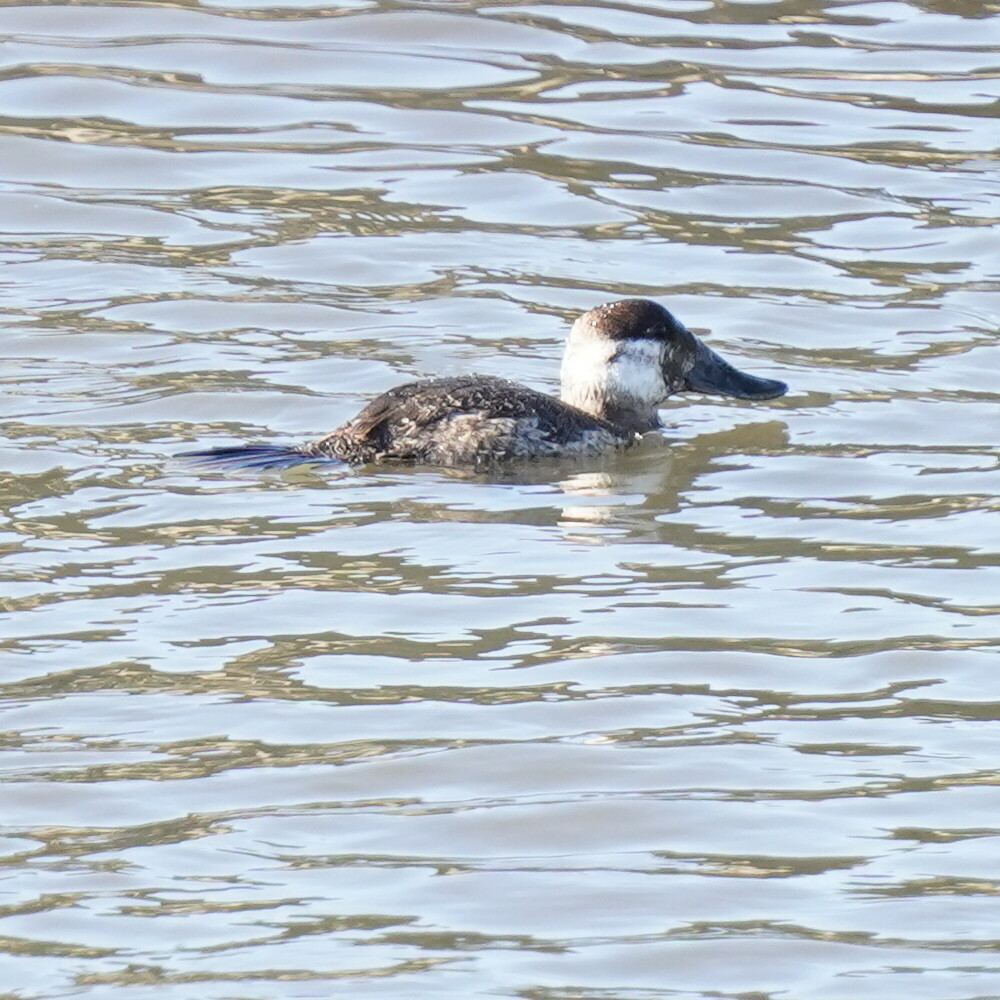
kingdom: Animalia
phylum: Chordata
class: Aves
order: Anseriformes
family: Anatidae
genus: Oxyura
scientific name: Oxyura jamaicensis
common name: Ruddy duck
